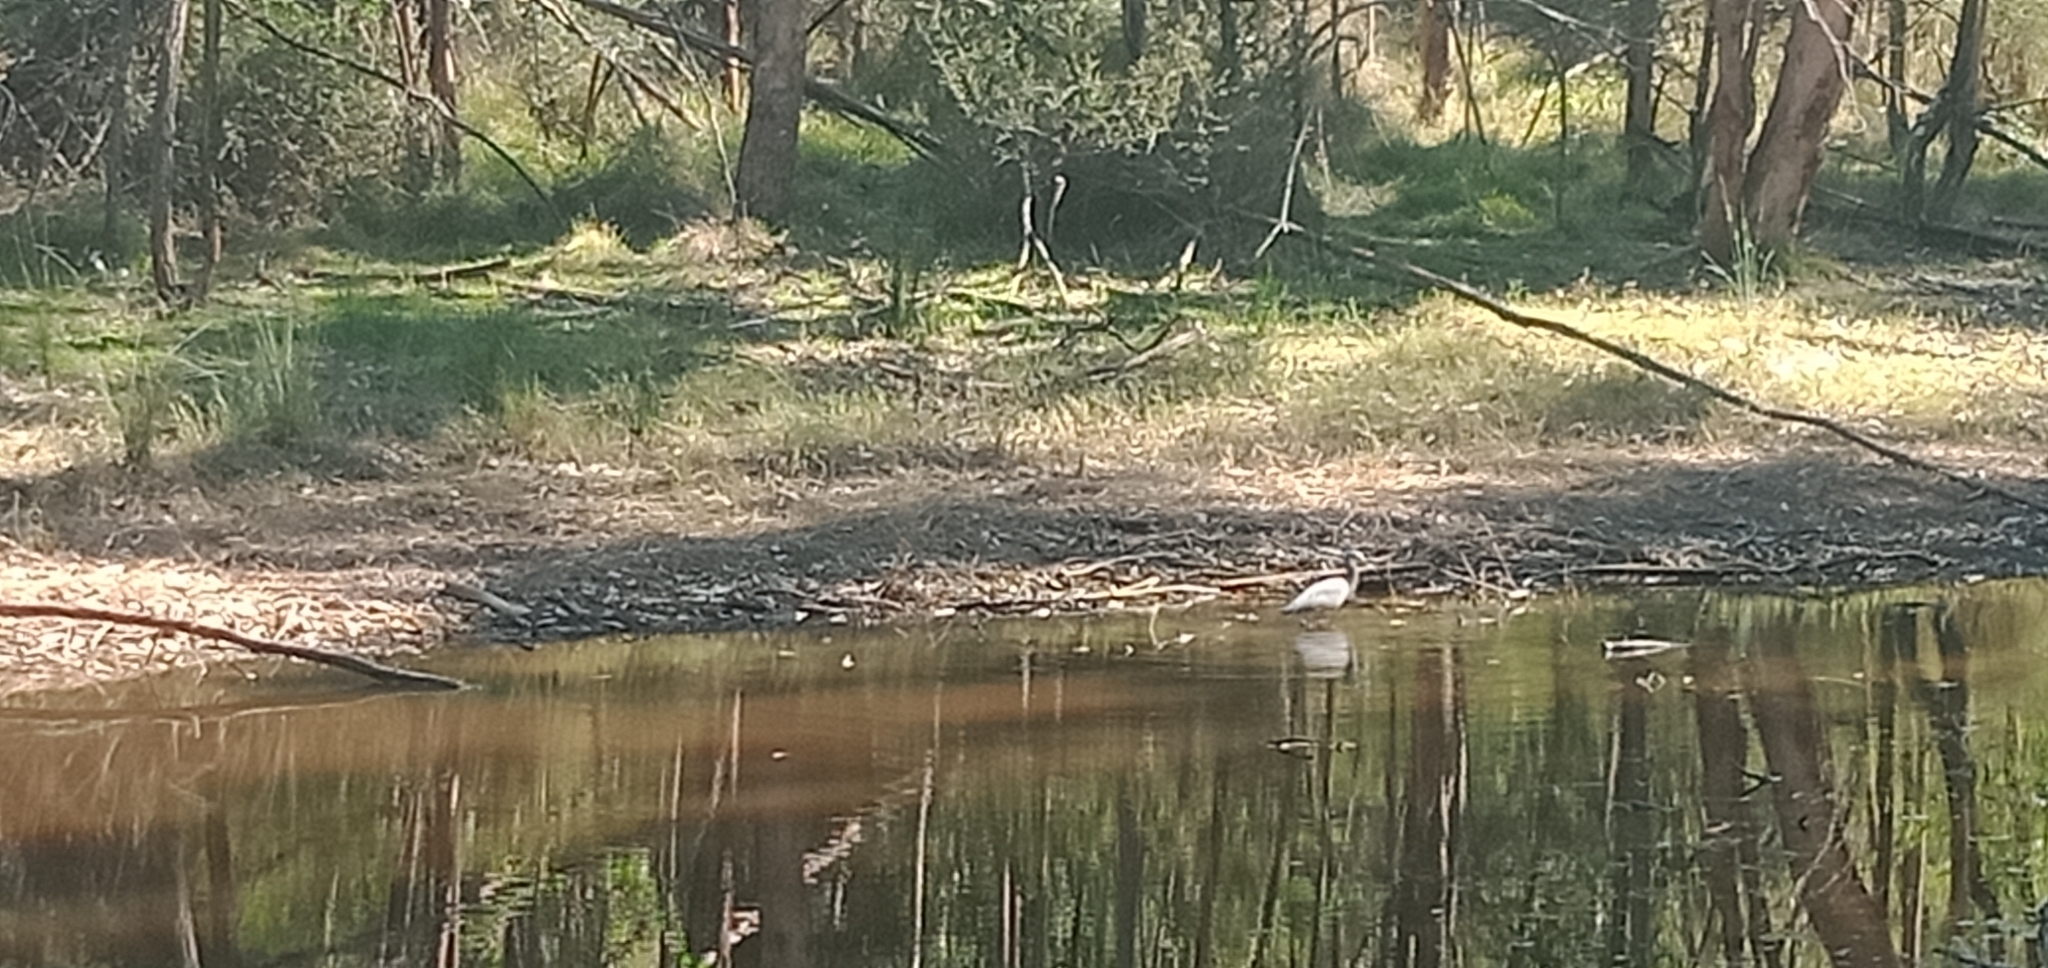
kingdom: Animalia
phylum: Chordata
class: Aves
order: Pelecaniformes
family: Ardeidae
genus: Egretta
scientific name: Egretta novaehollandiae
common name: White-faced heron
